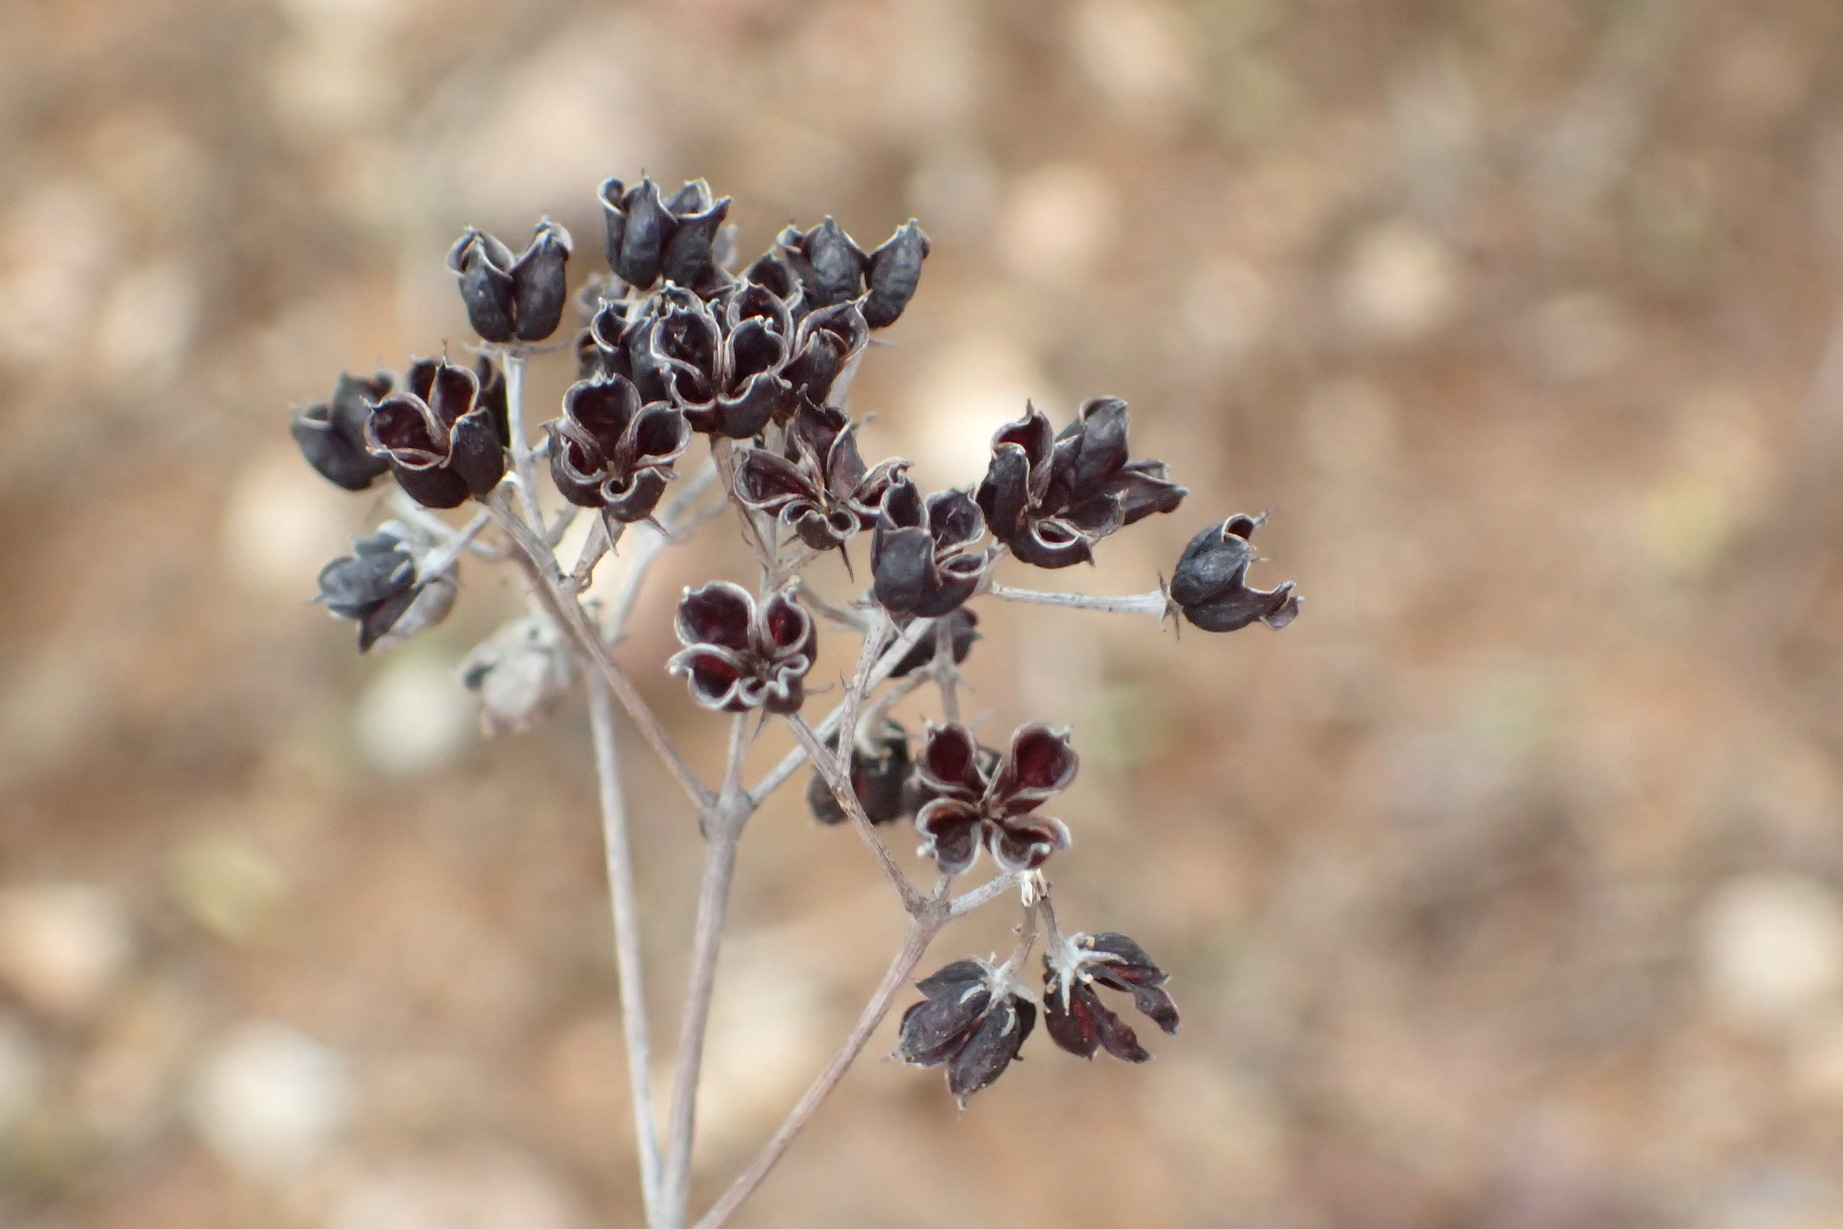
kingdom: Plantae
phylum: Tracheophyta
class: Magnoliopsida
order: Saxifragales
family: Crassulaceae
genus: Kalanchoe
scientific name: Kalanchoe rotundifolia
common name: Common kalanchoe
